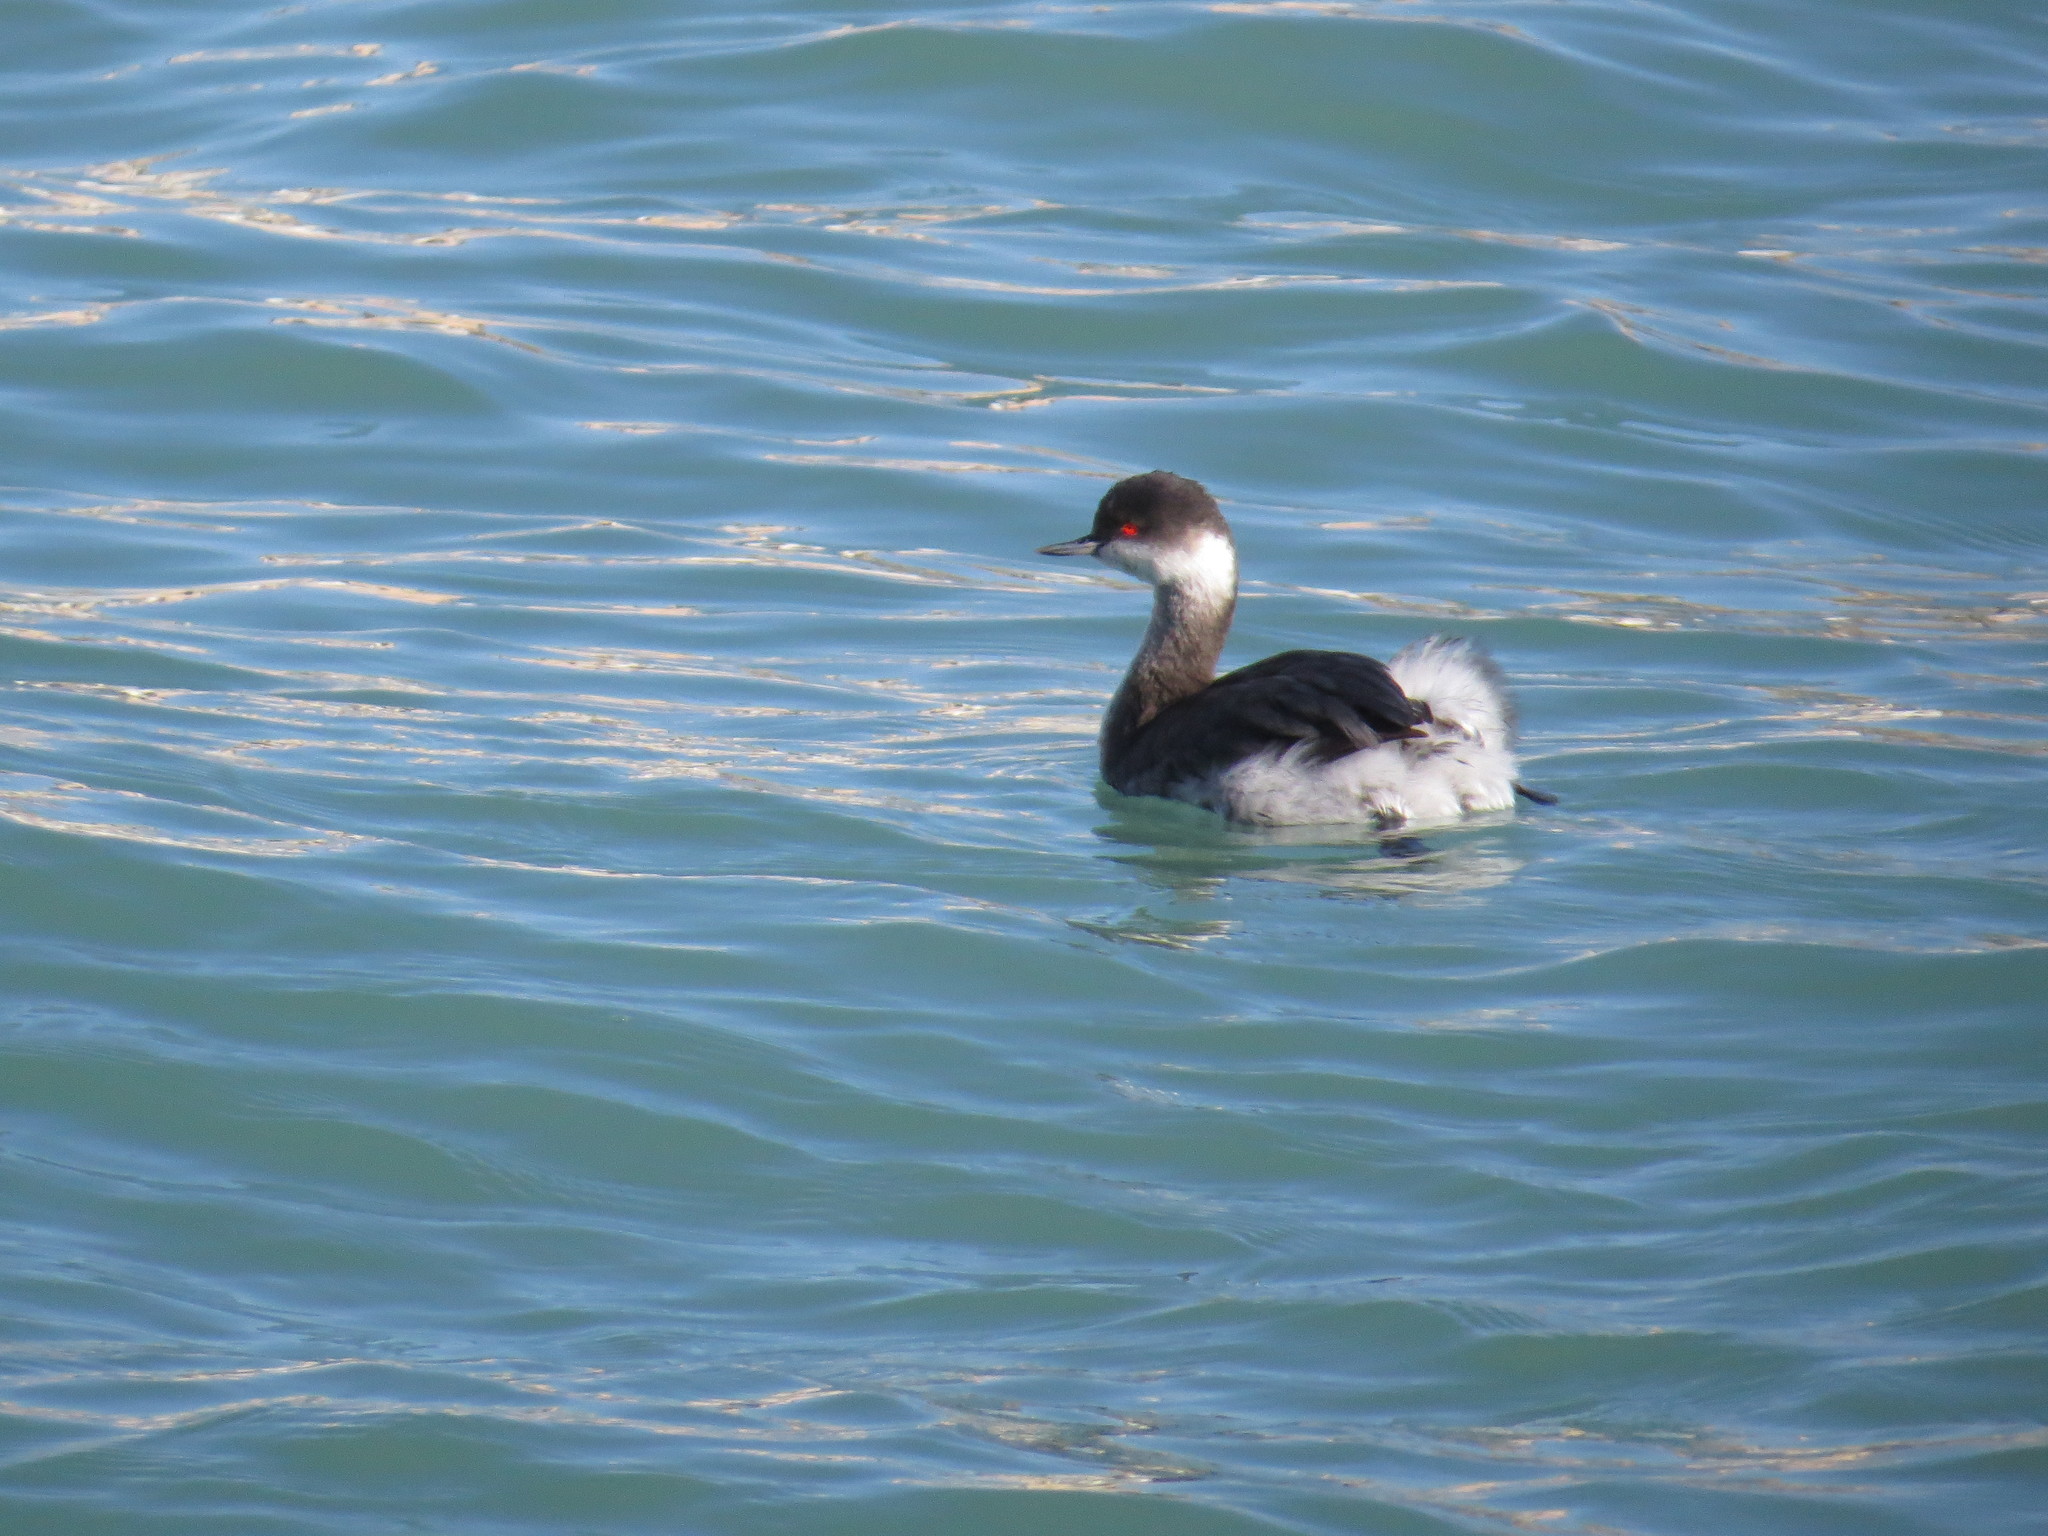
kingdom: Animalia
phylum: Chordata
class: Aves
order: Podicipediformes
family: Podicipedidae
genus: Podiceps
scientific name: Podiceps nigricollis
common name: Black-necked grebe
